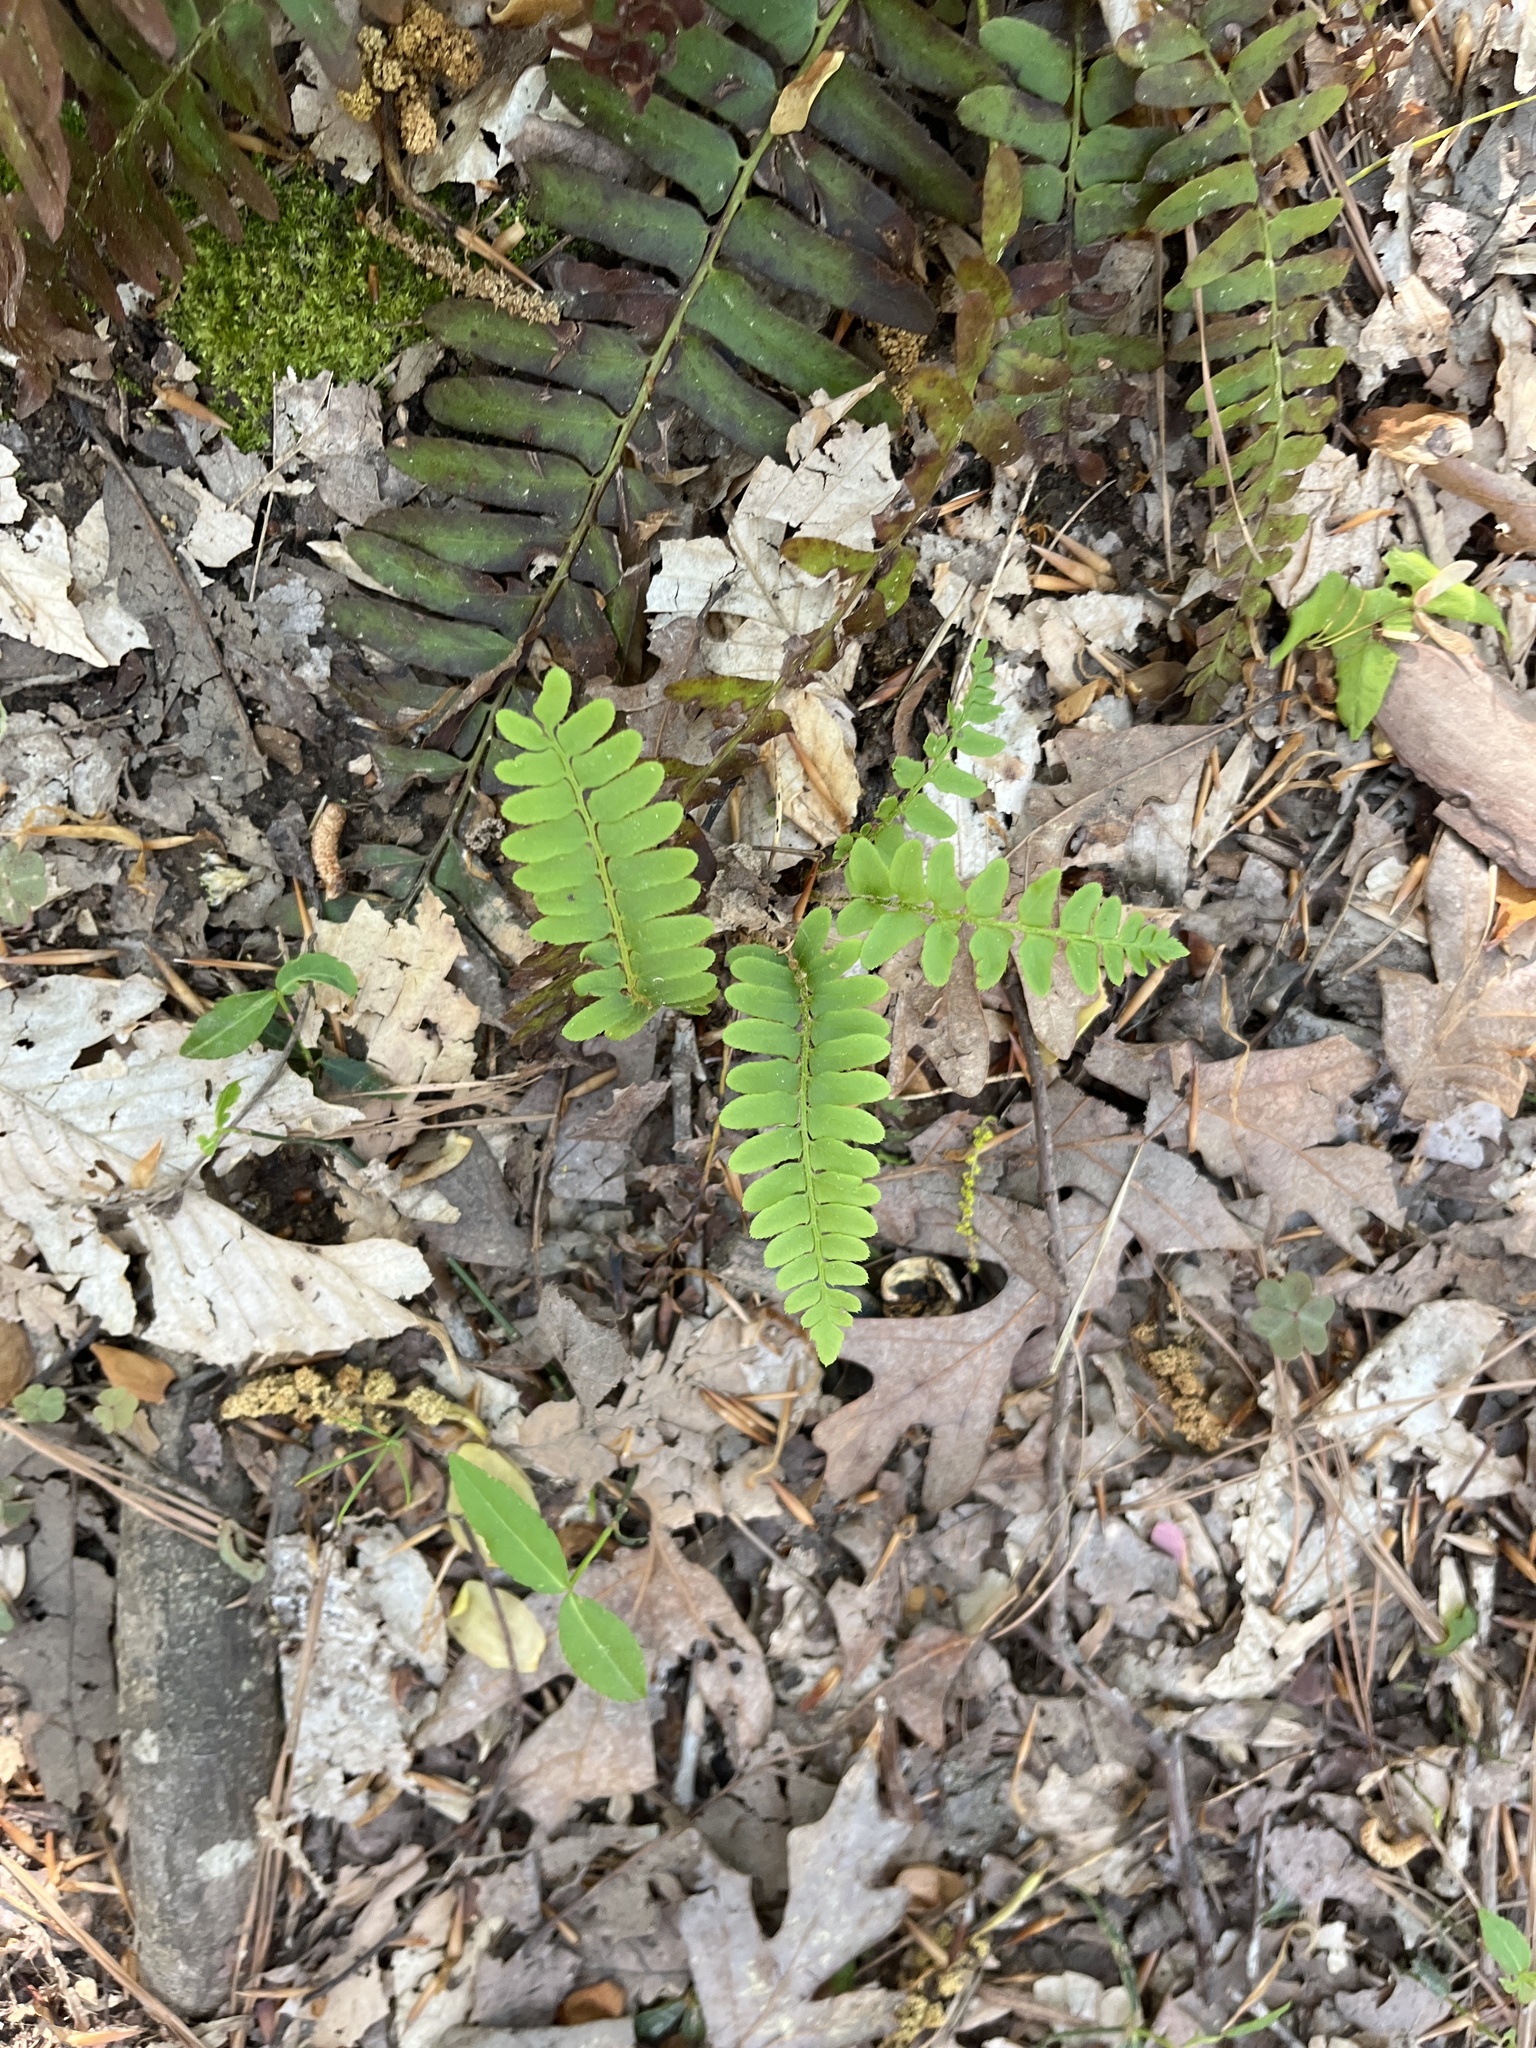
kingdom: Plantae
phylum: Tracheophyta
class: Polypodiopsida
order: Polypodiales
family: Dryopteridaceae
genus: Polystichum
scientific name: Polystichum acrostichoides
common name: Christmas fern
